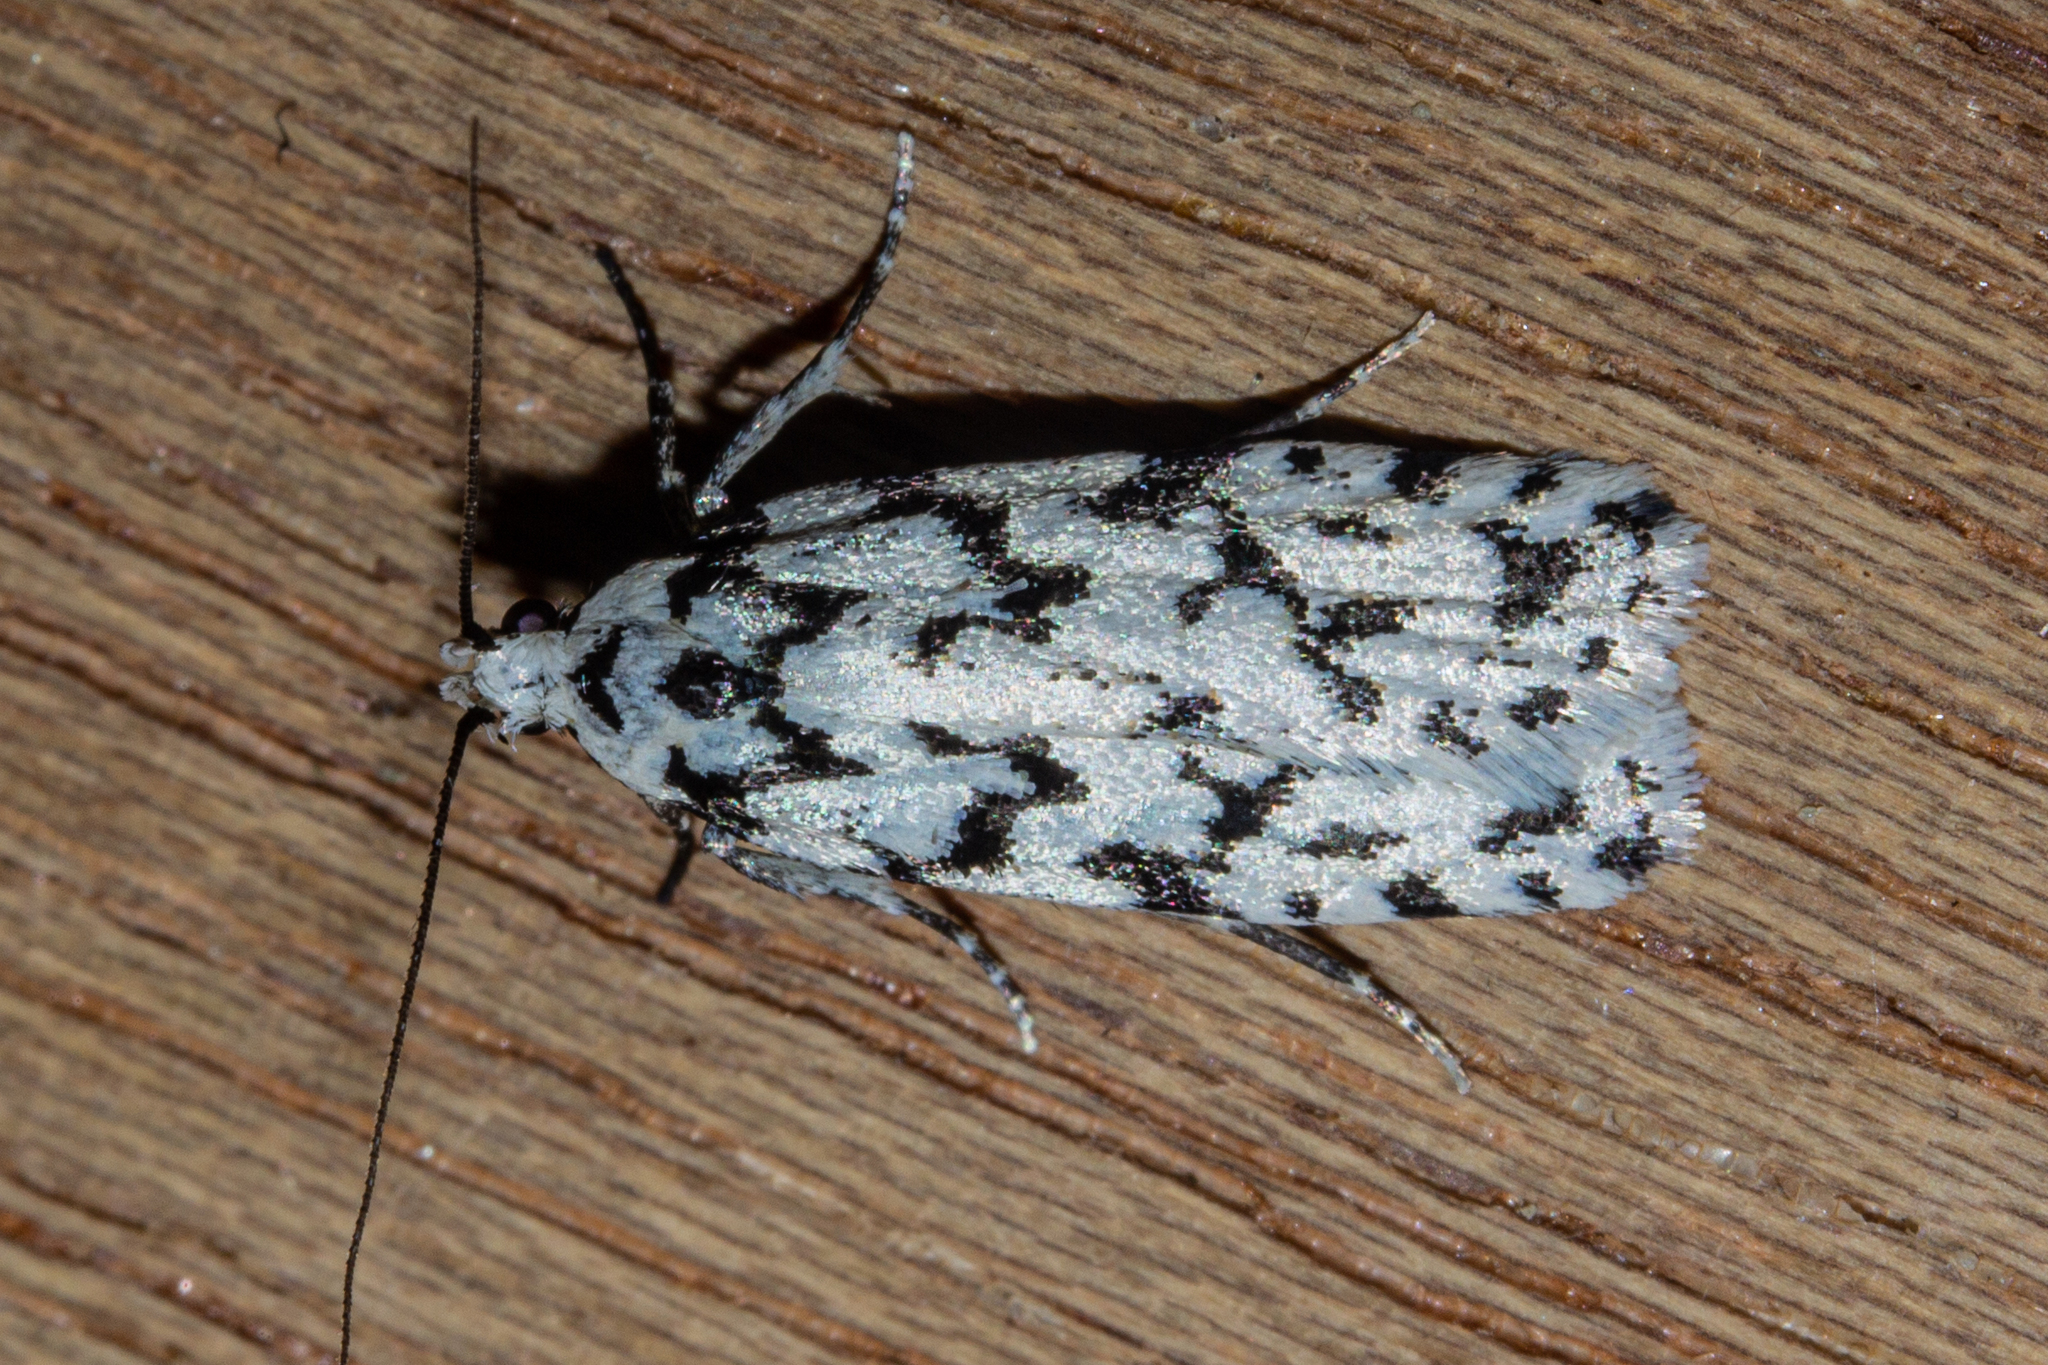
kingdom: Animalia
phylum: Arthropoda
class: Insecta
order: Lepidoptera
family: Oecophoridae
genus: Izatha
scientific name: Izatha katadiktya
